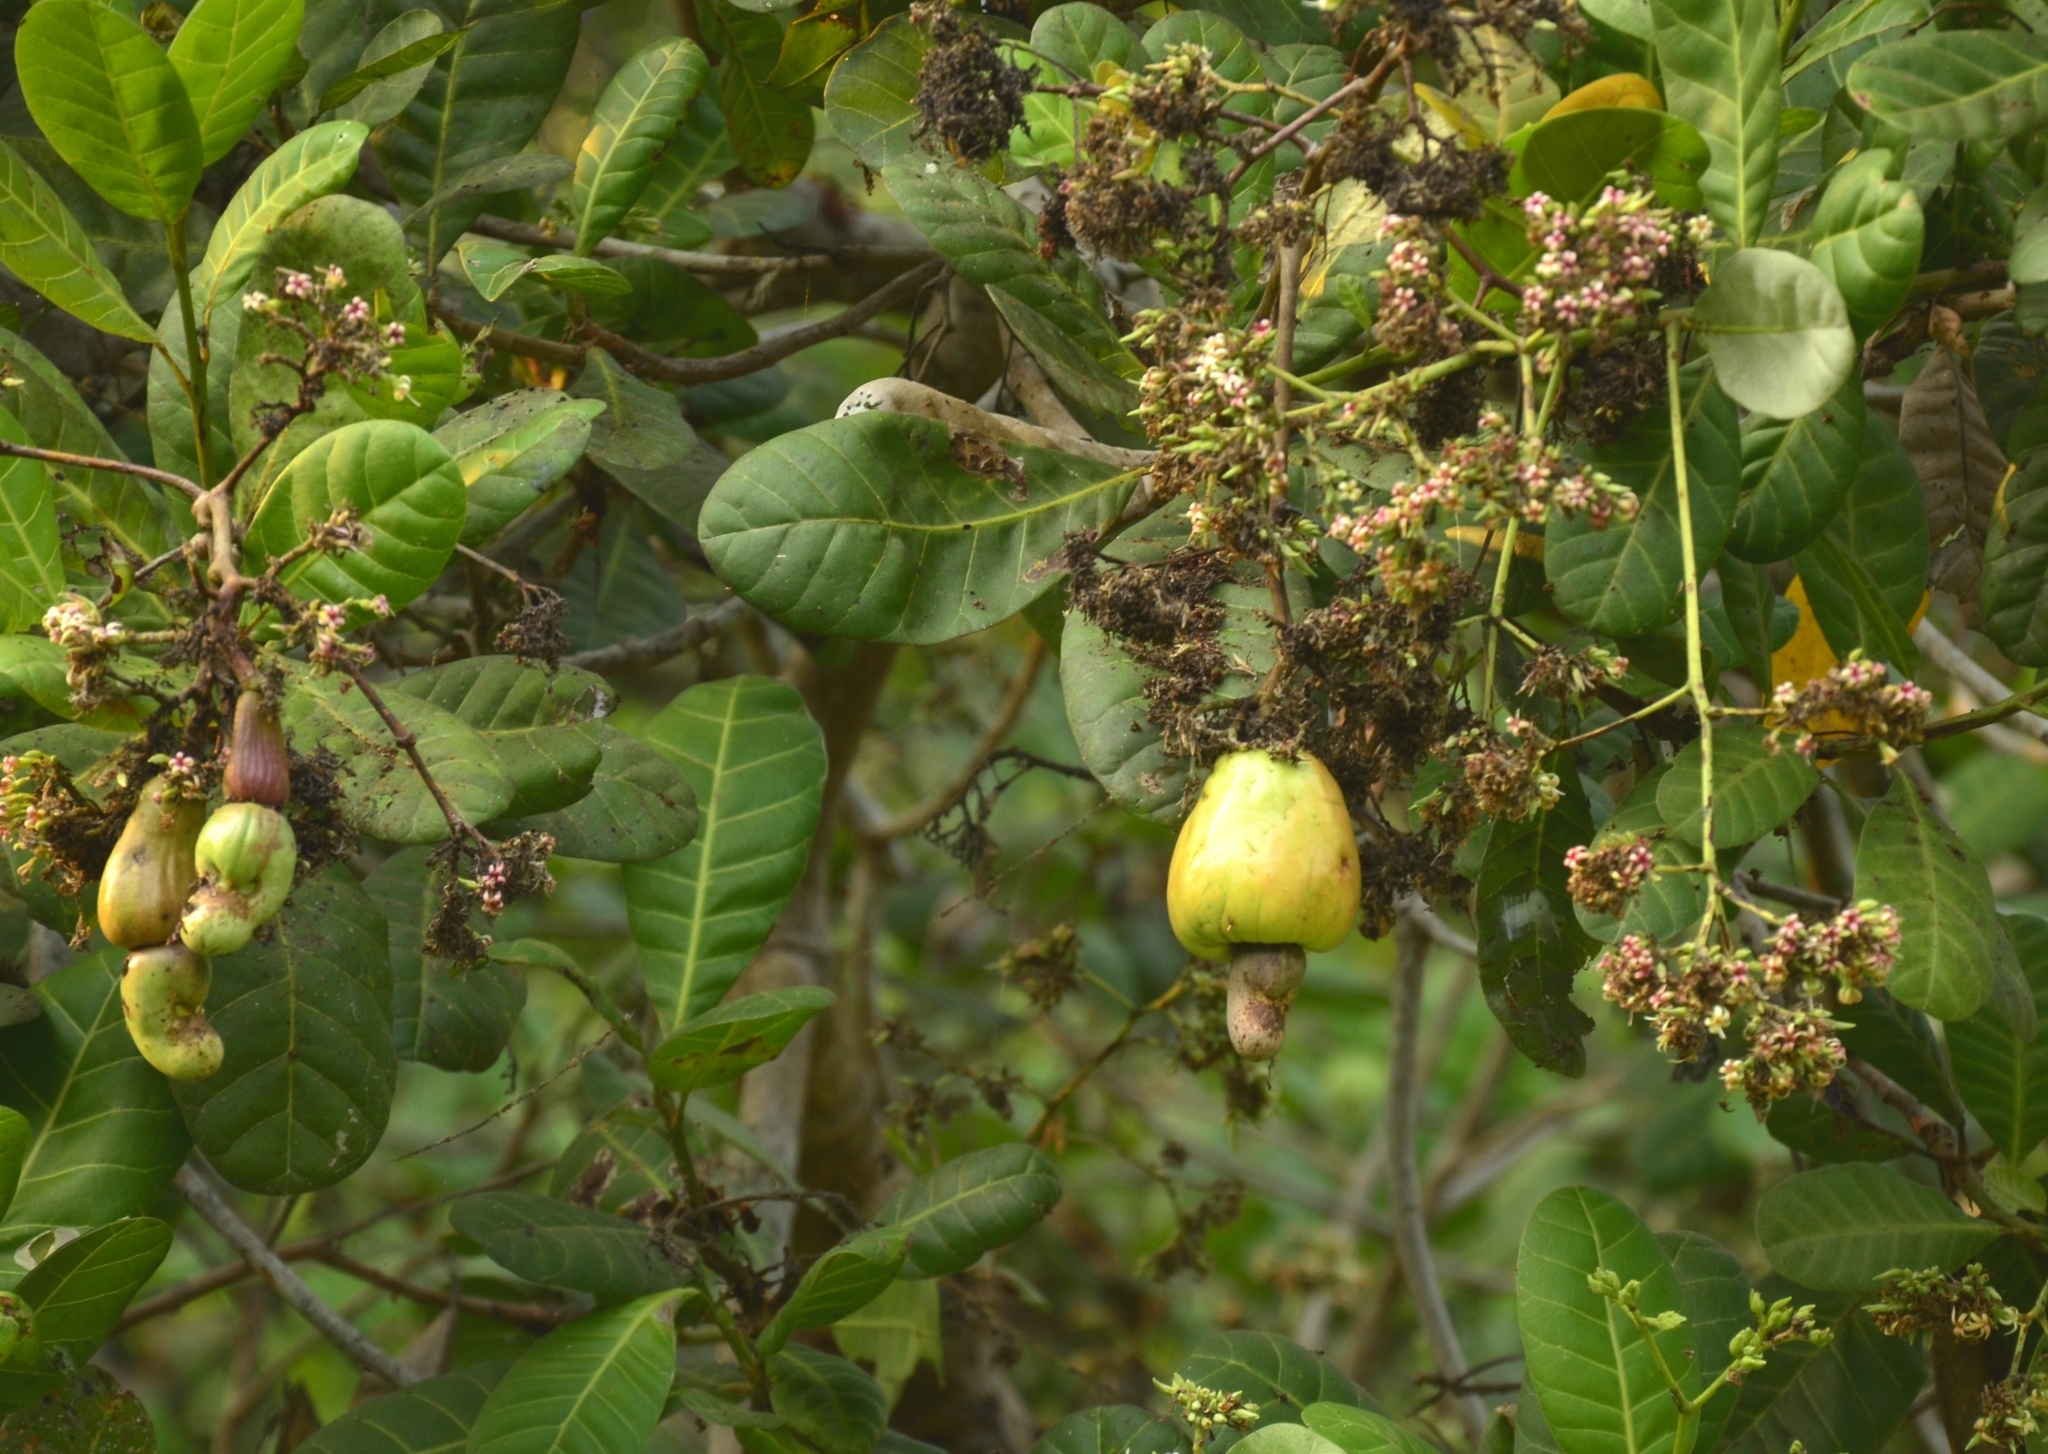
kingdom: Plantae
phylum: Tracheophyta
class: Magnoliopsida
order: Sapindales
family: Anacardiaceae
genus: Anacardium
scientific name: Anacardium occidentale
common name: Cashew
